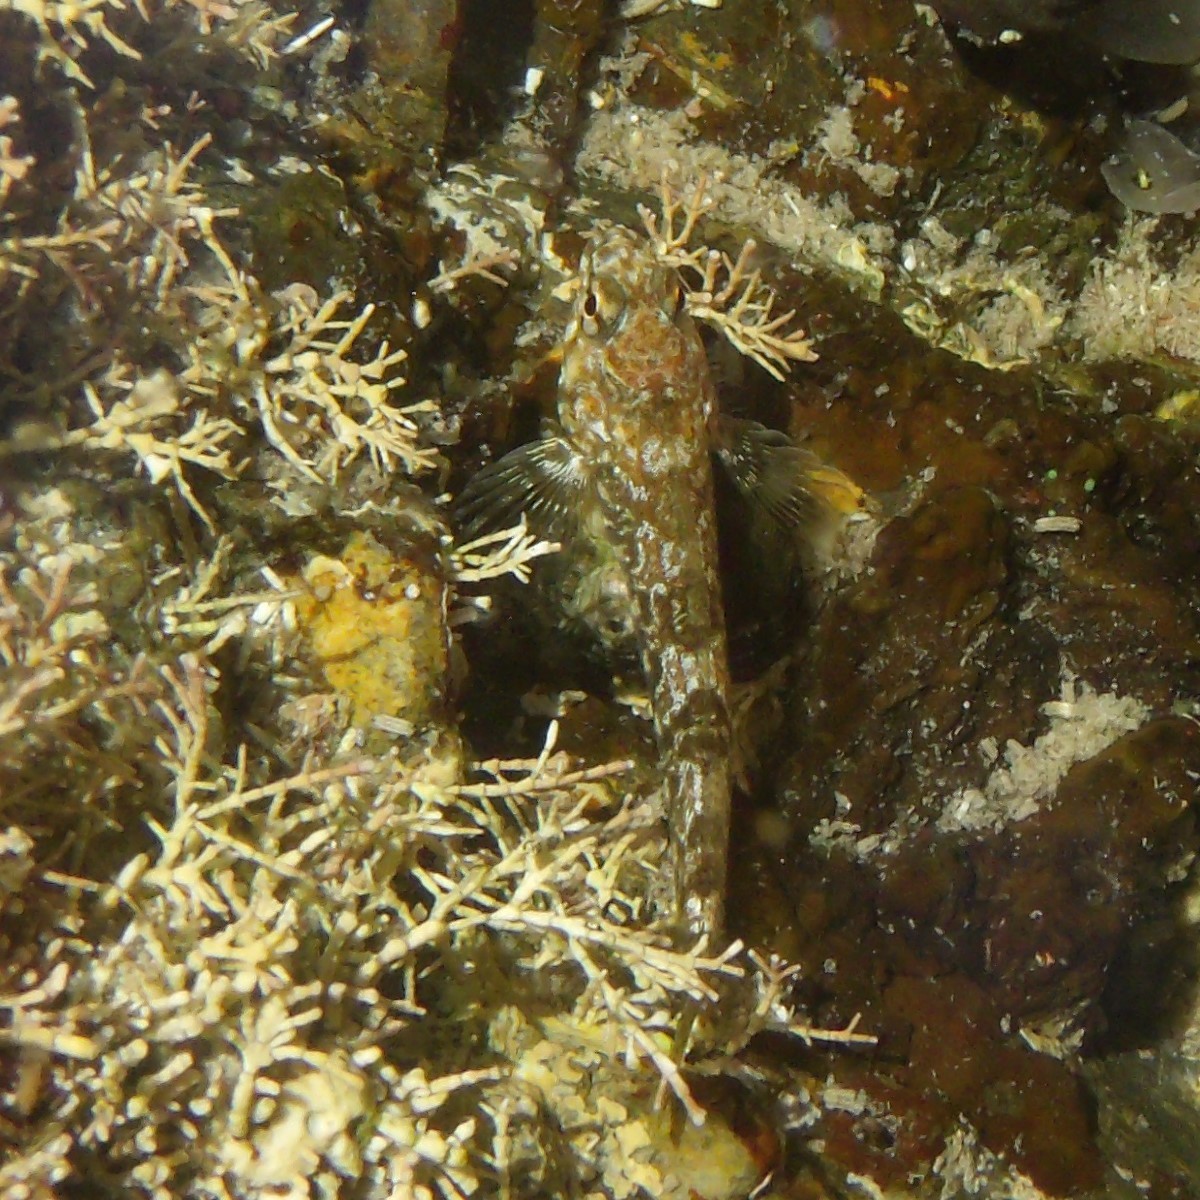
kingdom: Animalia
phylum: Chordata
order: Perciformes
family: Tripterygiidae
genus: Bellapiscis
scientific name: Bellapiscis lesleyae
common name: Mottled twister
